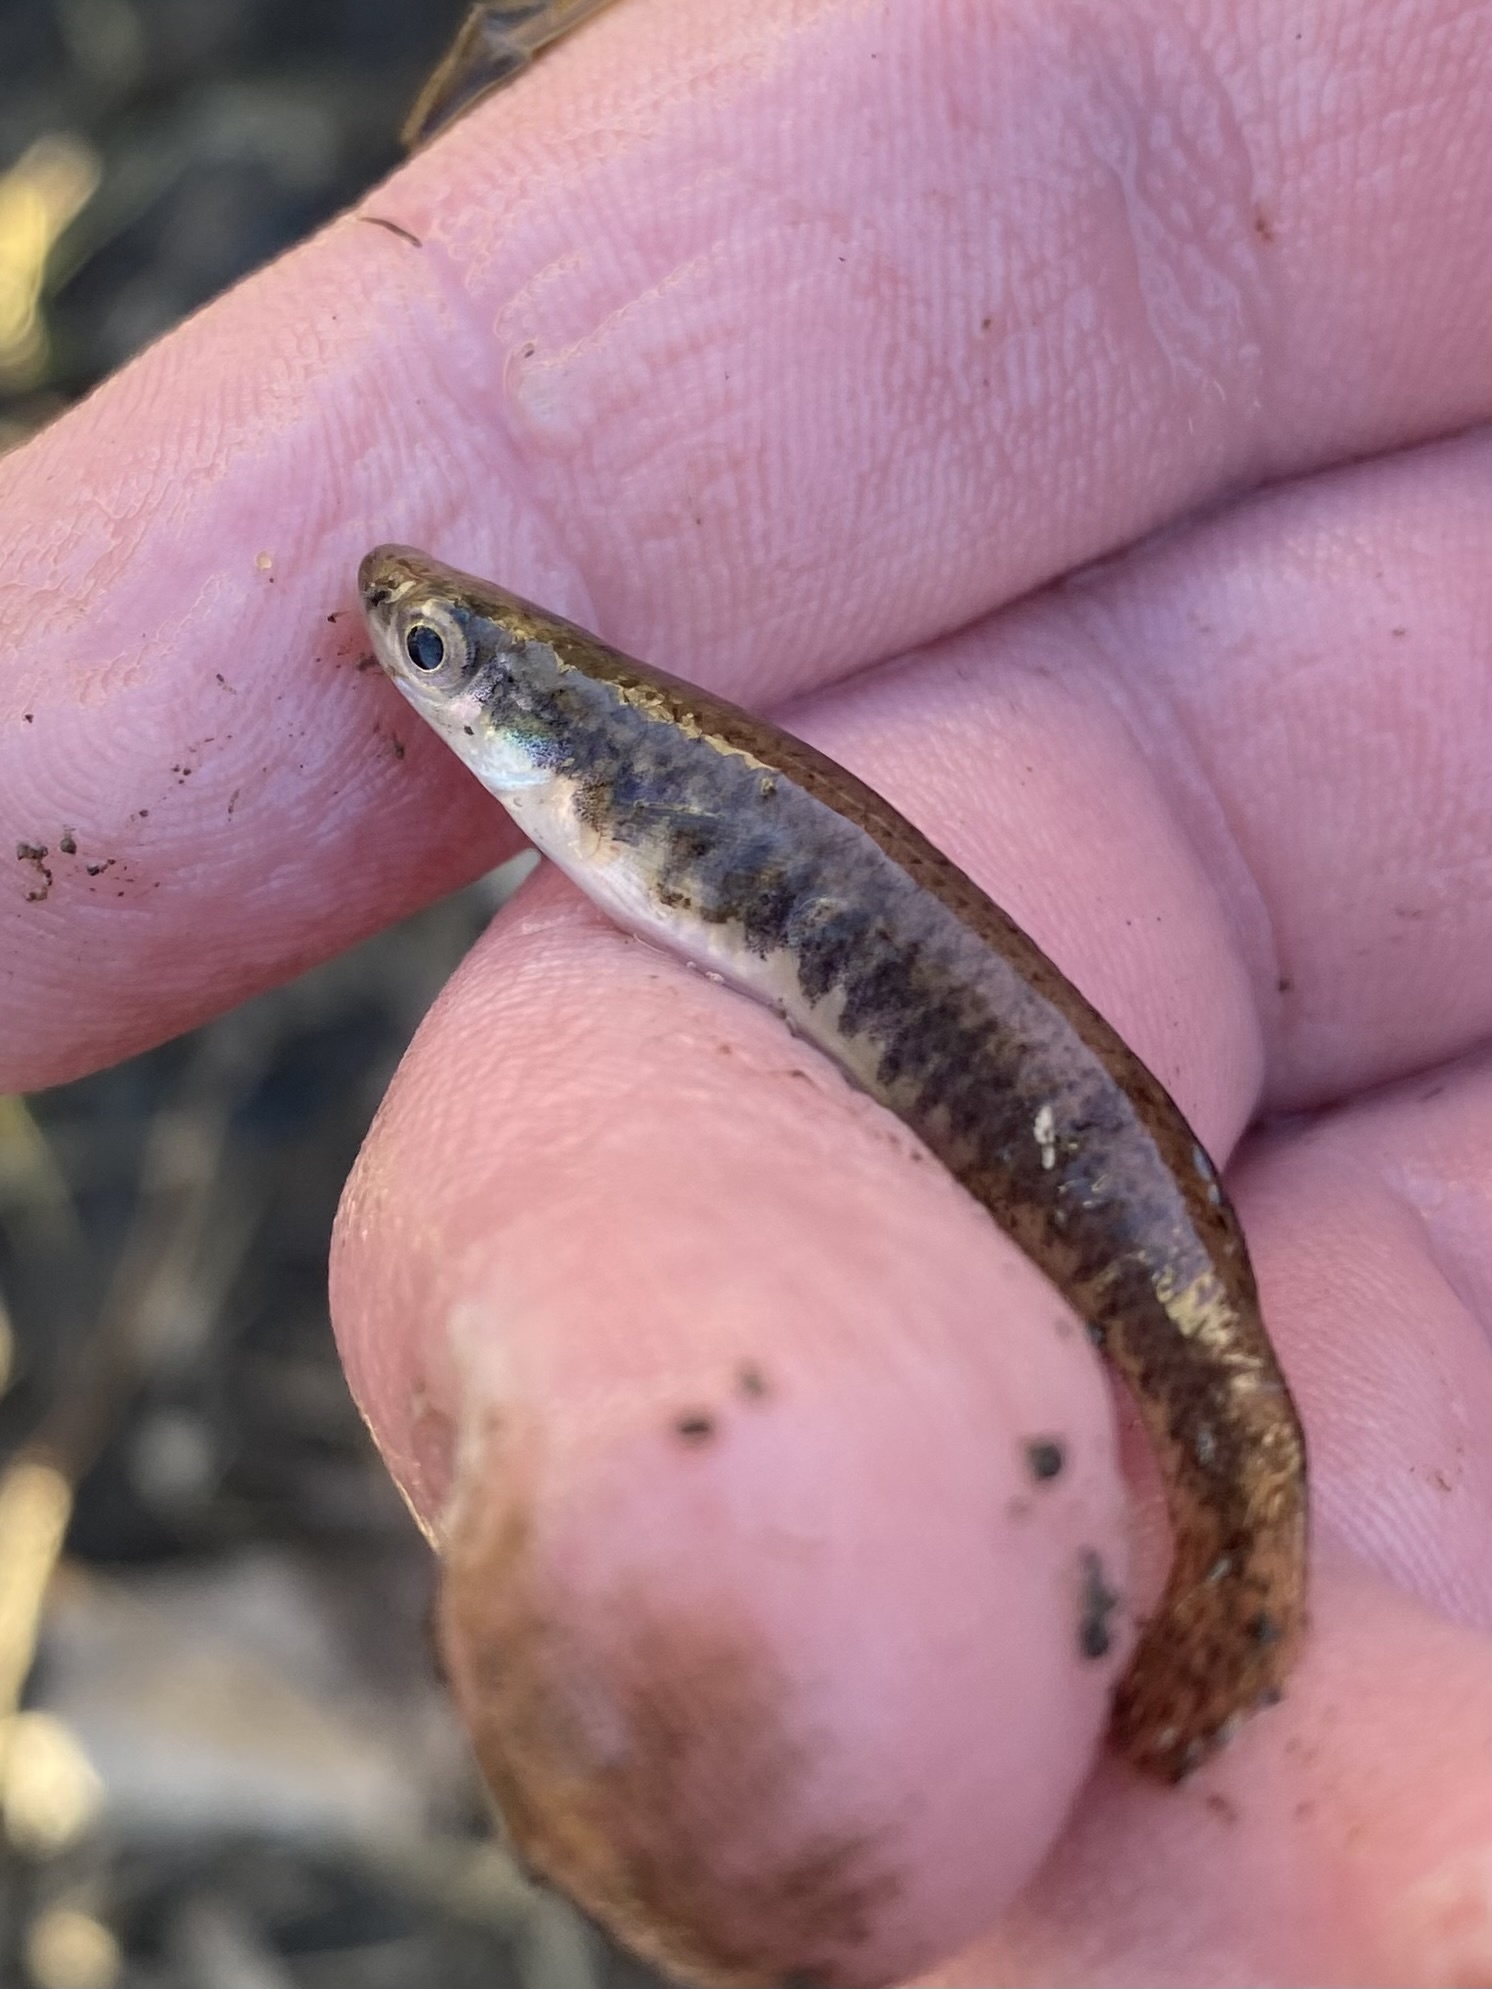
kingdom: Animalia
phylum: Chordata
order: Cyprinodontiformes
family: Fundulidae
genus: Fundulus
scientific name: Fundulus notatus
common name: Blackstripe topminnow
